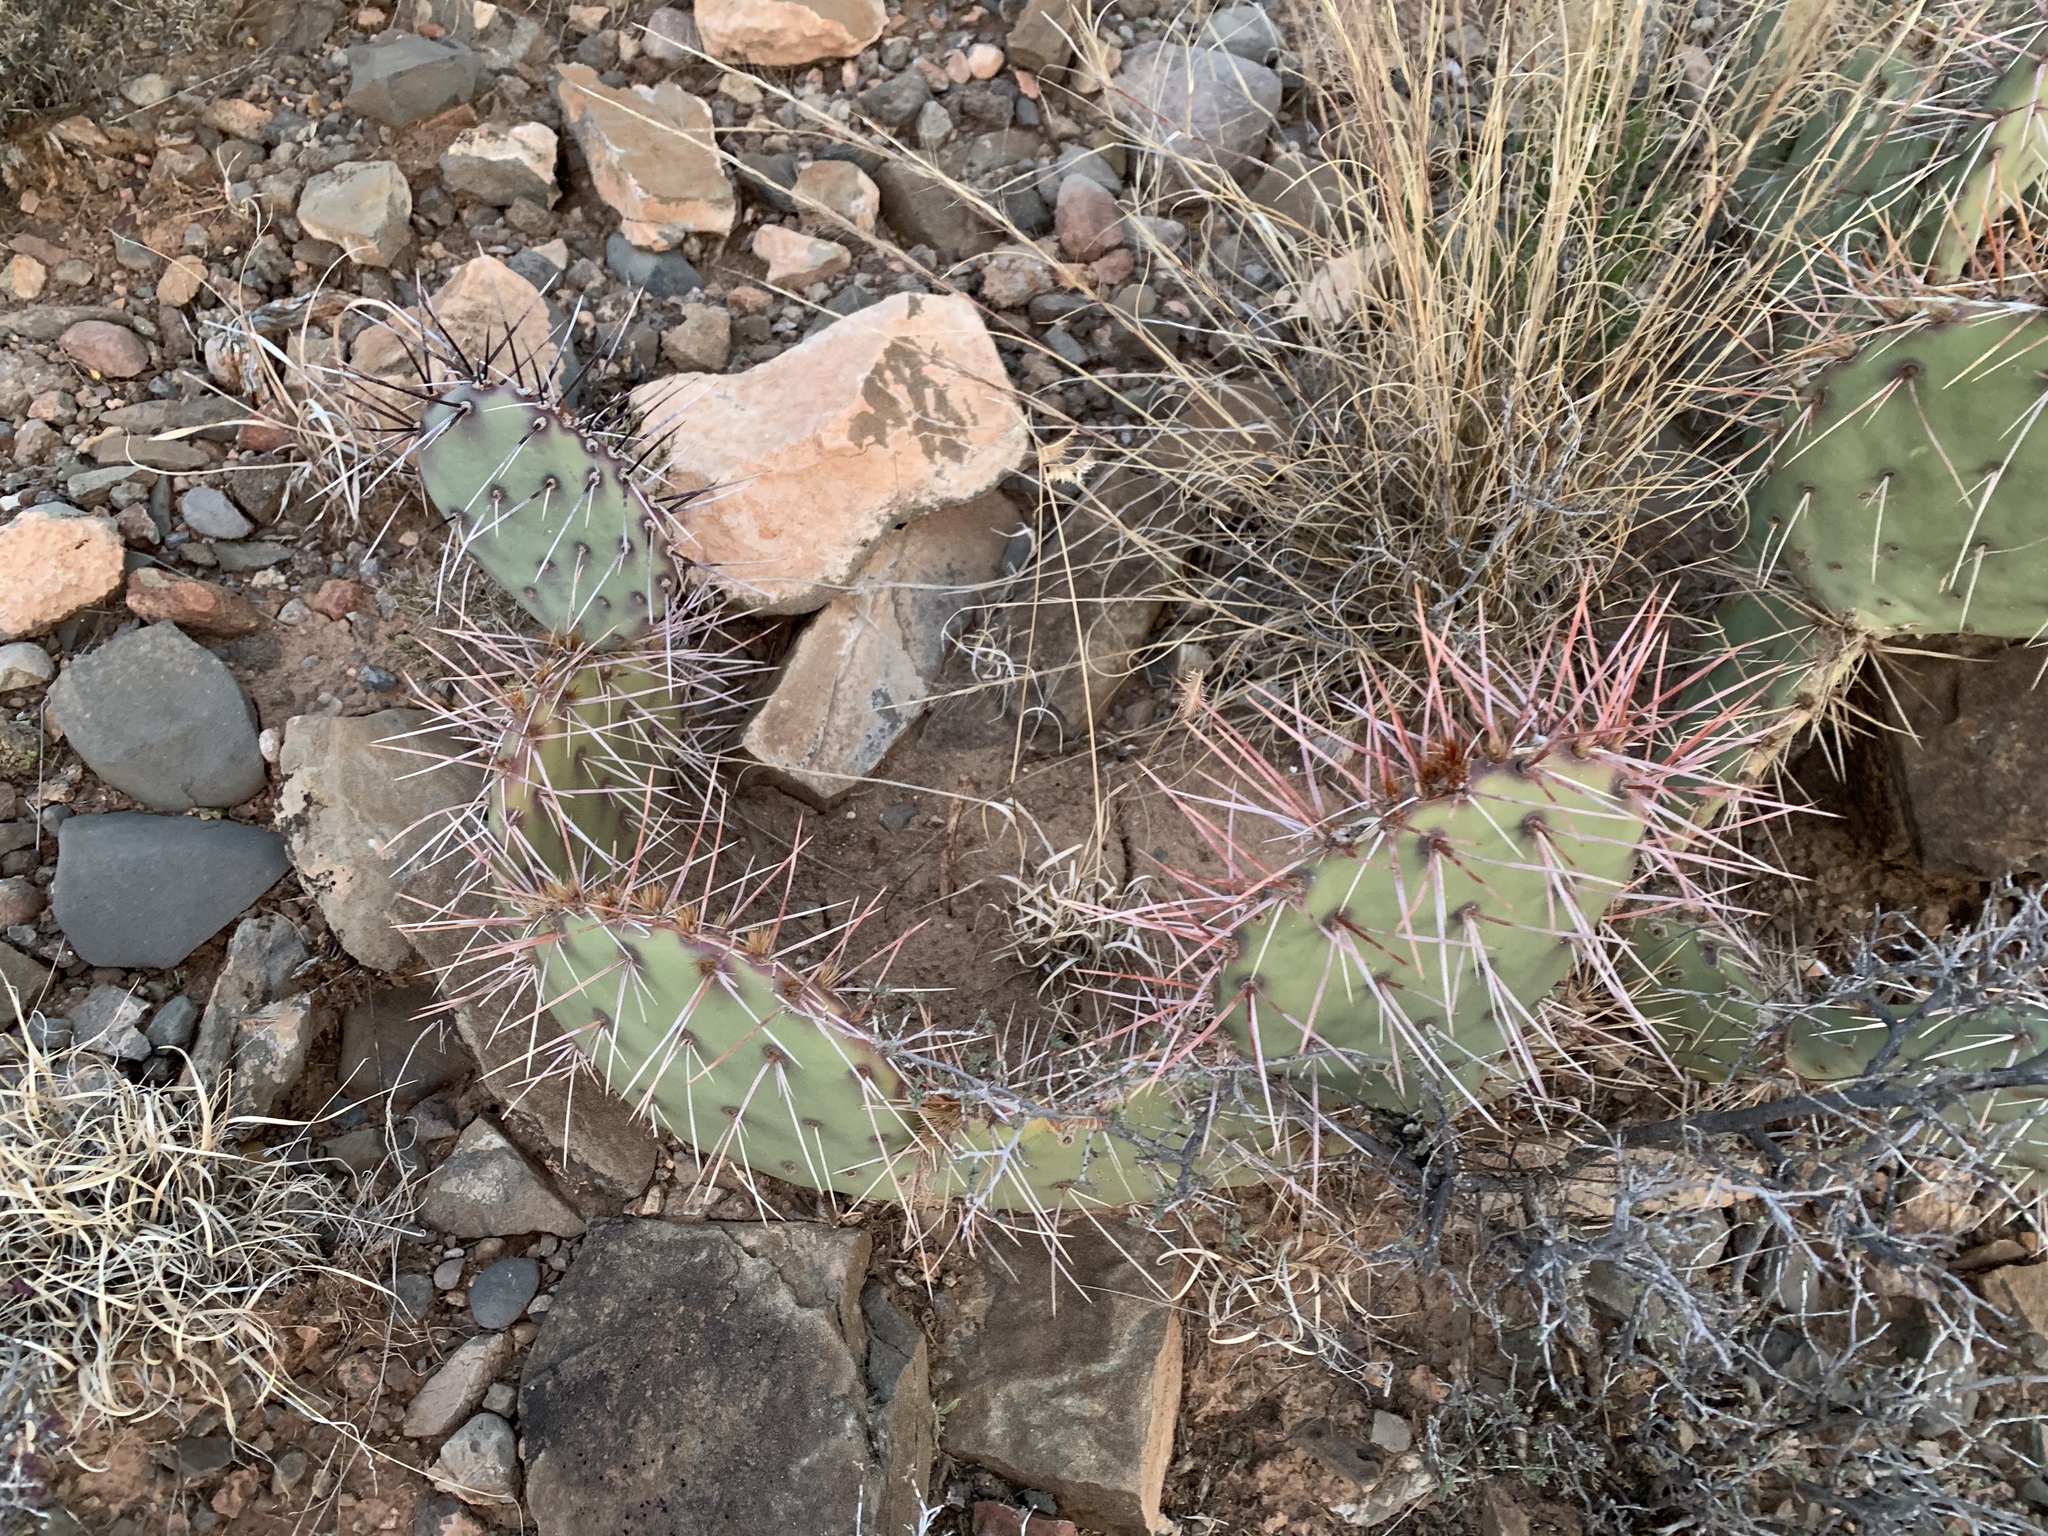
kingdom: Plantae
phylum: Tracheophyta
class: Magnoliopsida
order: Caryophyllales
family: Cactaceae
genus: Opuntia
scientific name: Opuntia phaeacantha
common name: New mexico prickly-pear
